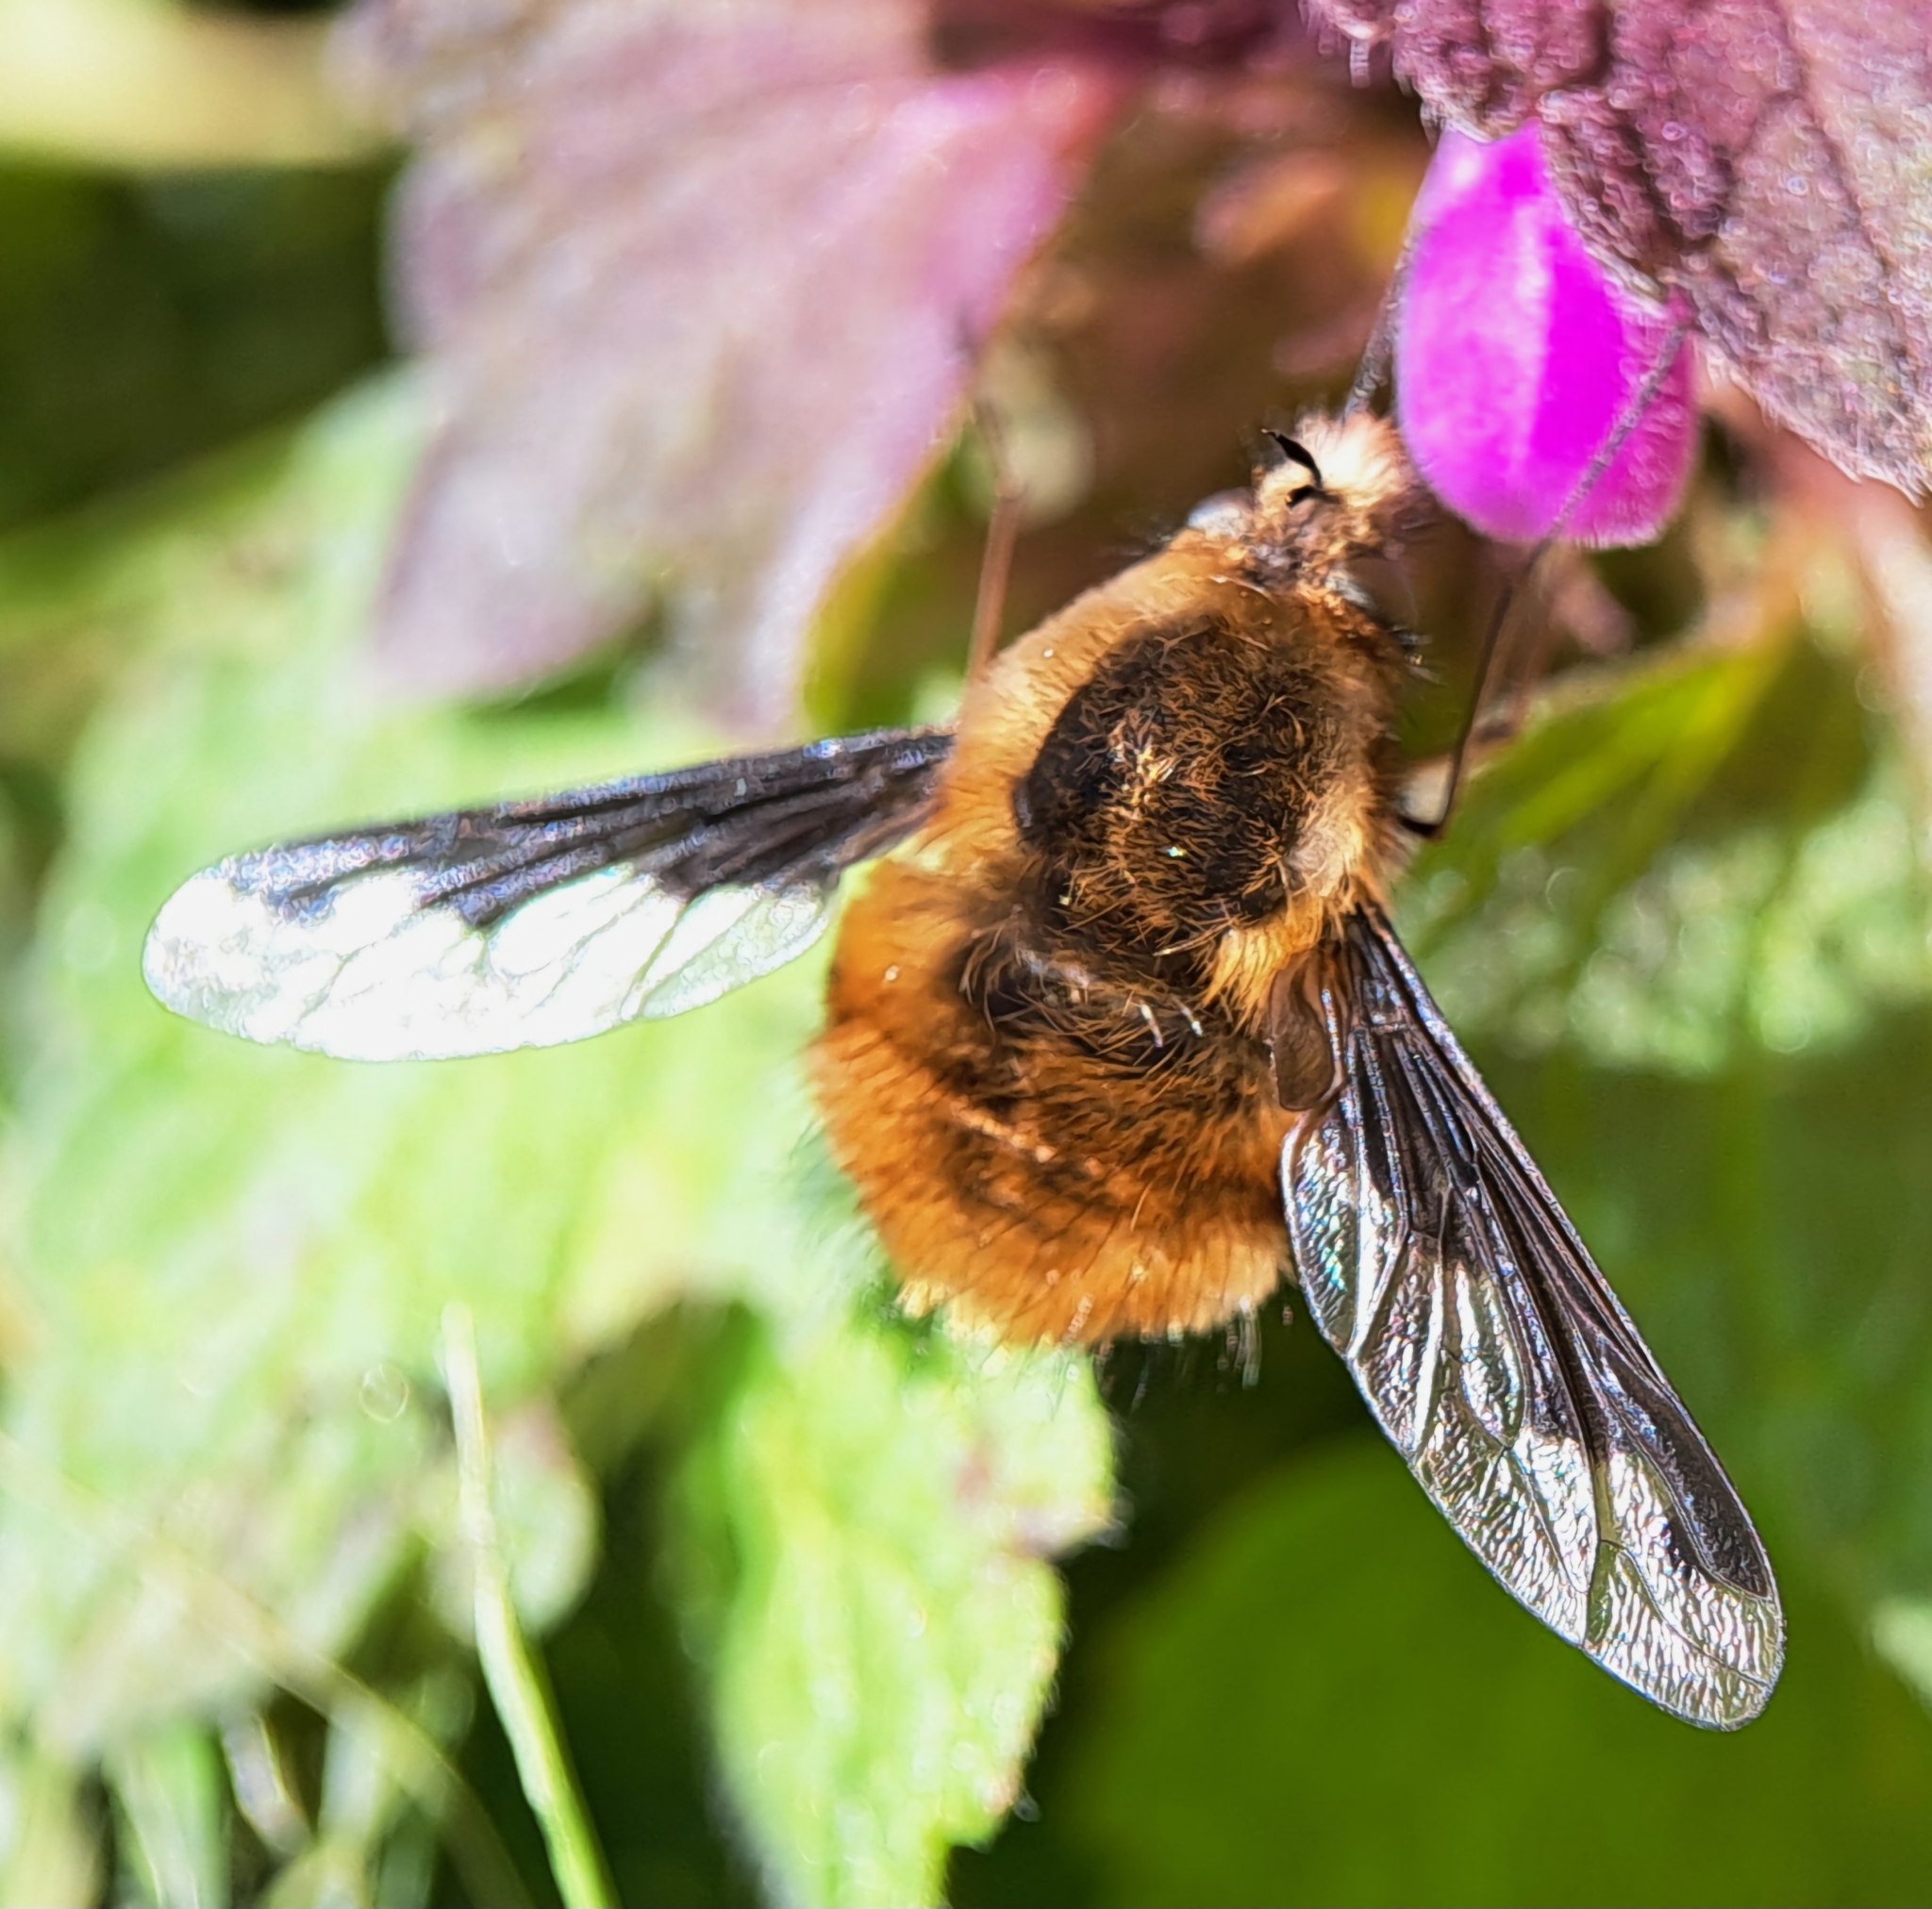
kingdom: Animalia
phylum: Arthropoda
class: Insecta
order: Diptera
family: Bombyliidae
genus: Bombylius
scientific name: Bombylius major
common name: Bee fly
